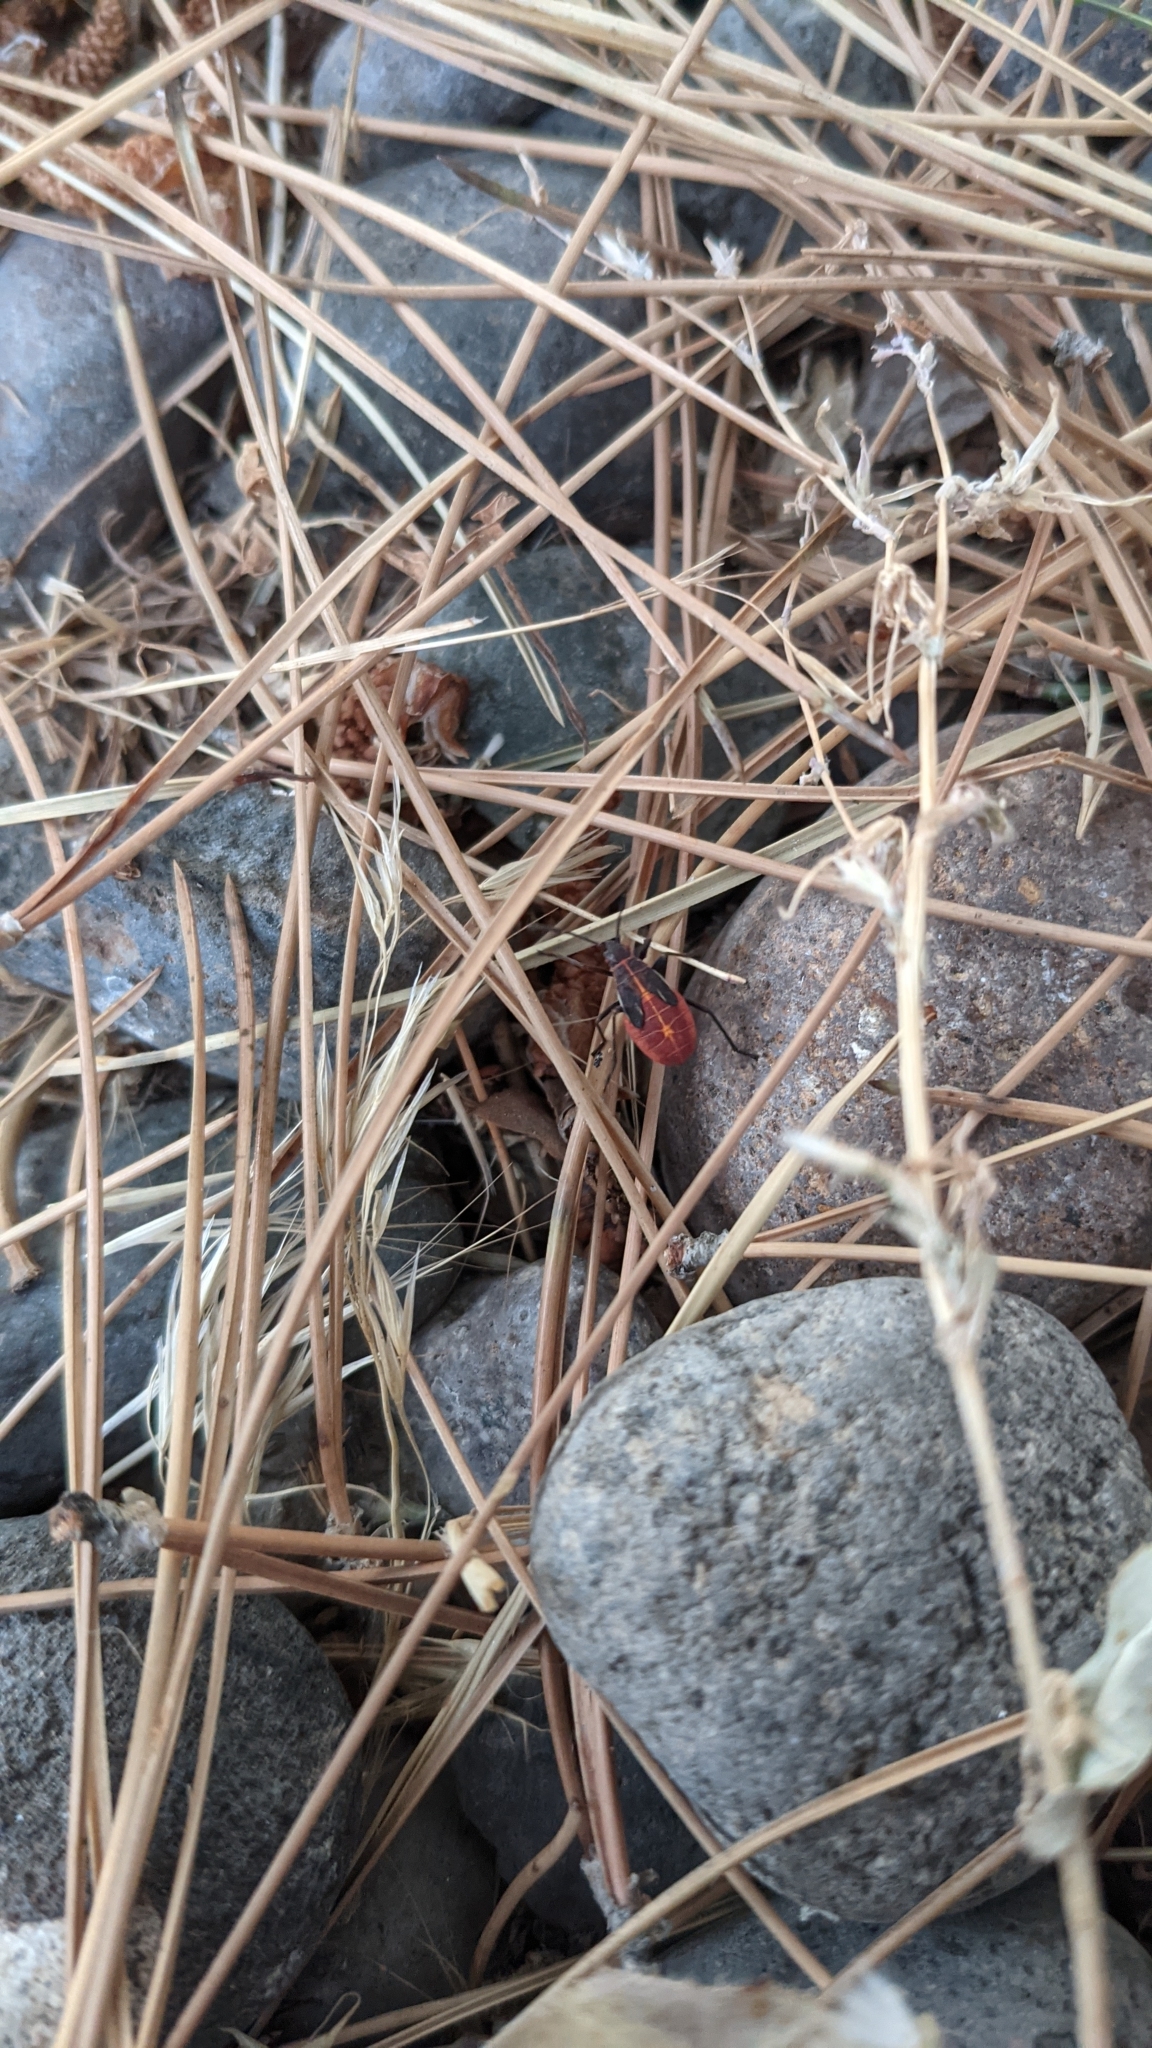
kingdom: Animalia
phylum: Arthropoda
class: Insecta
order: Hemiptera
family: Rhopalidae
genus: Boisea
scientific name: Boisea rubrolineata
